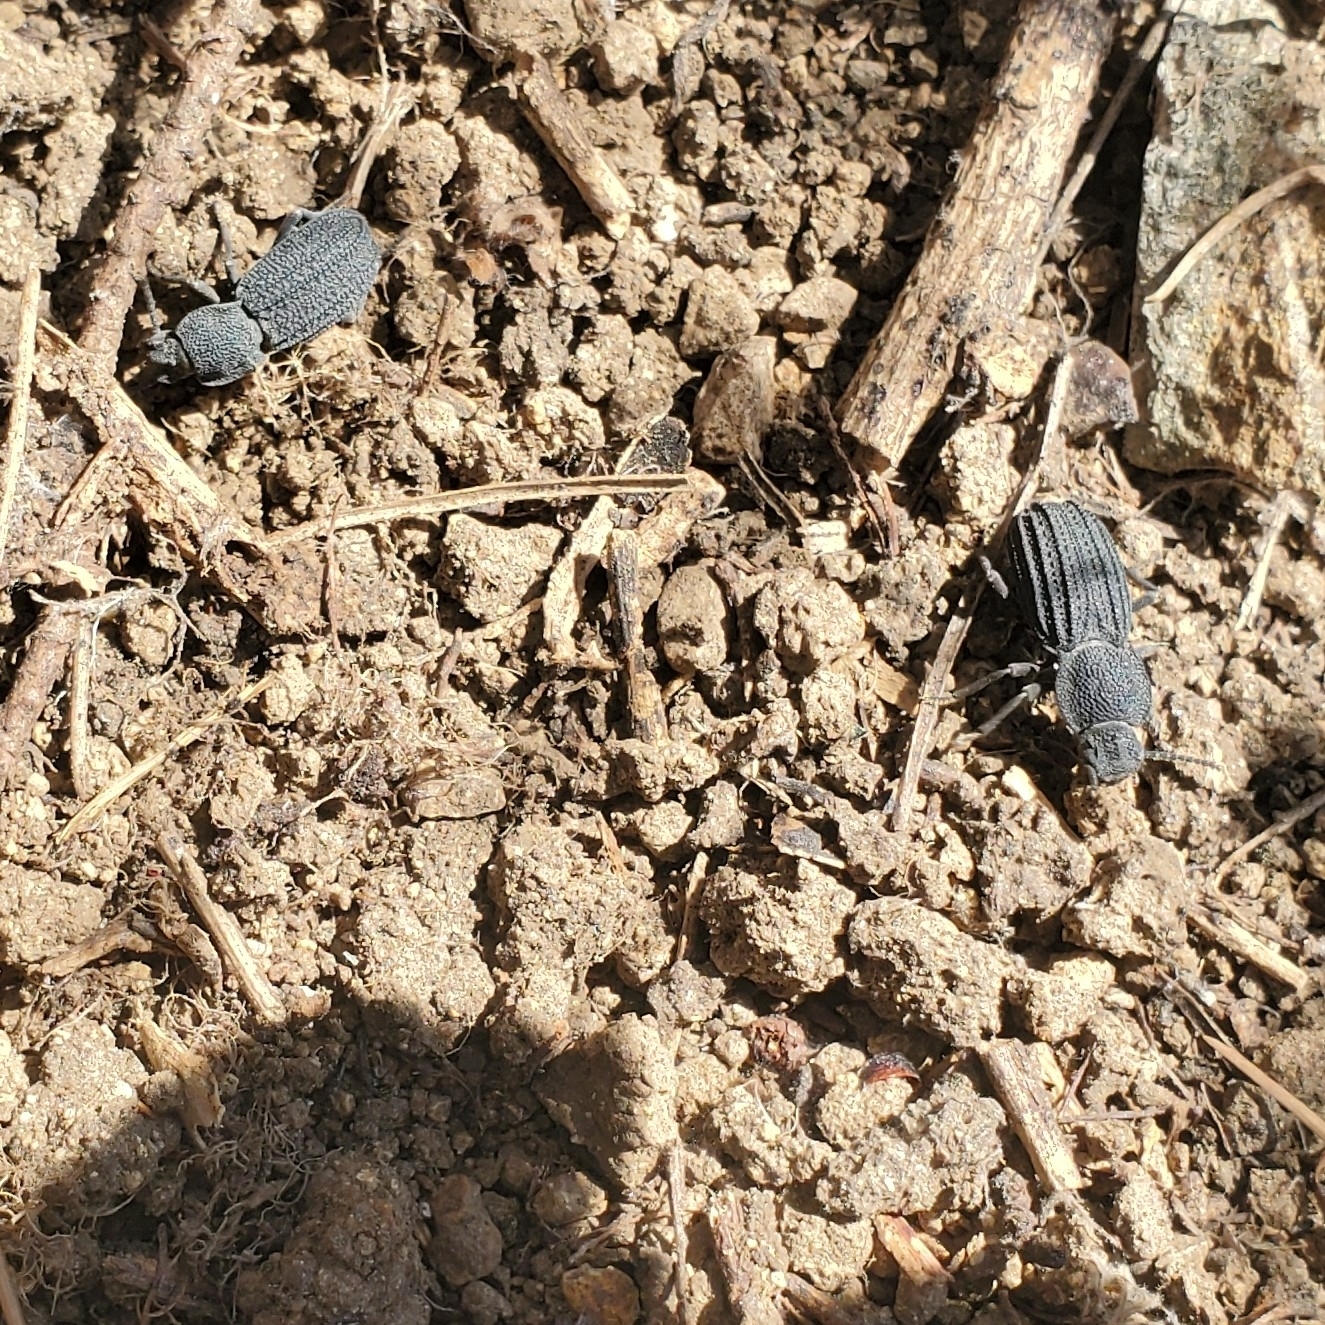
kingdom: Animalia
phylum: Arthropoda
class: Insecta
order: Coleoptera
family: Tenebrionidae
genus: Nyctoporis
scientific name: Nyctoporis carinata
